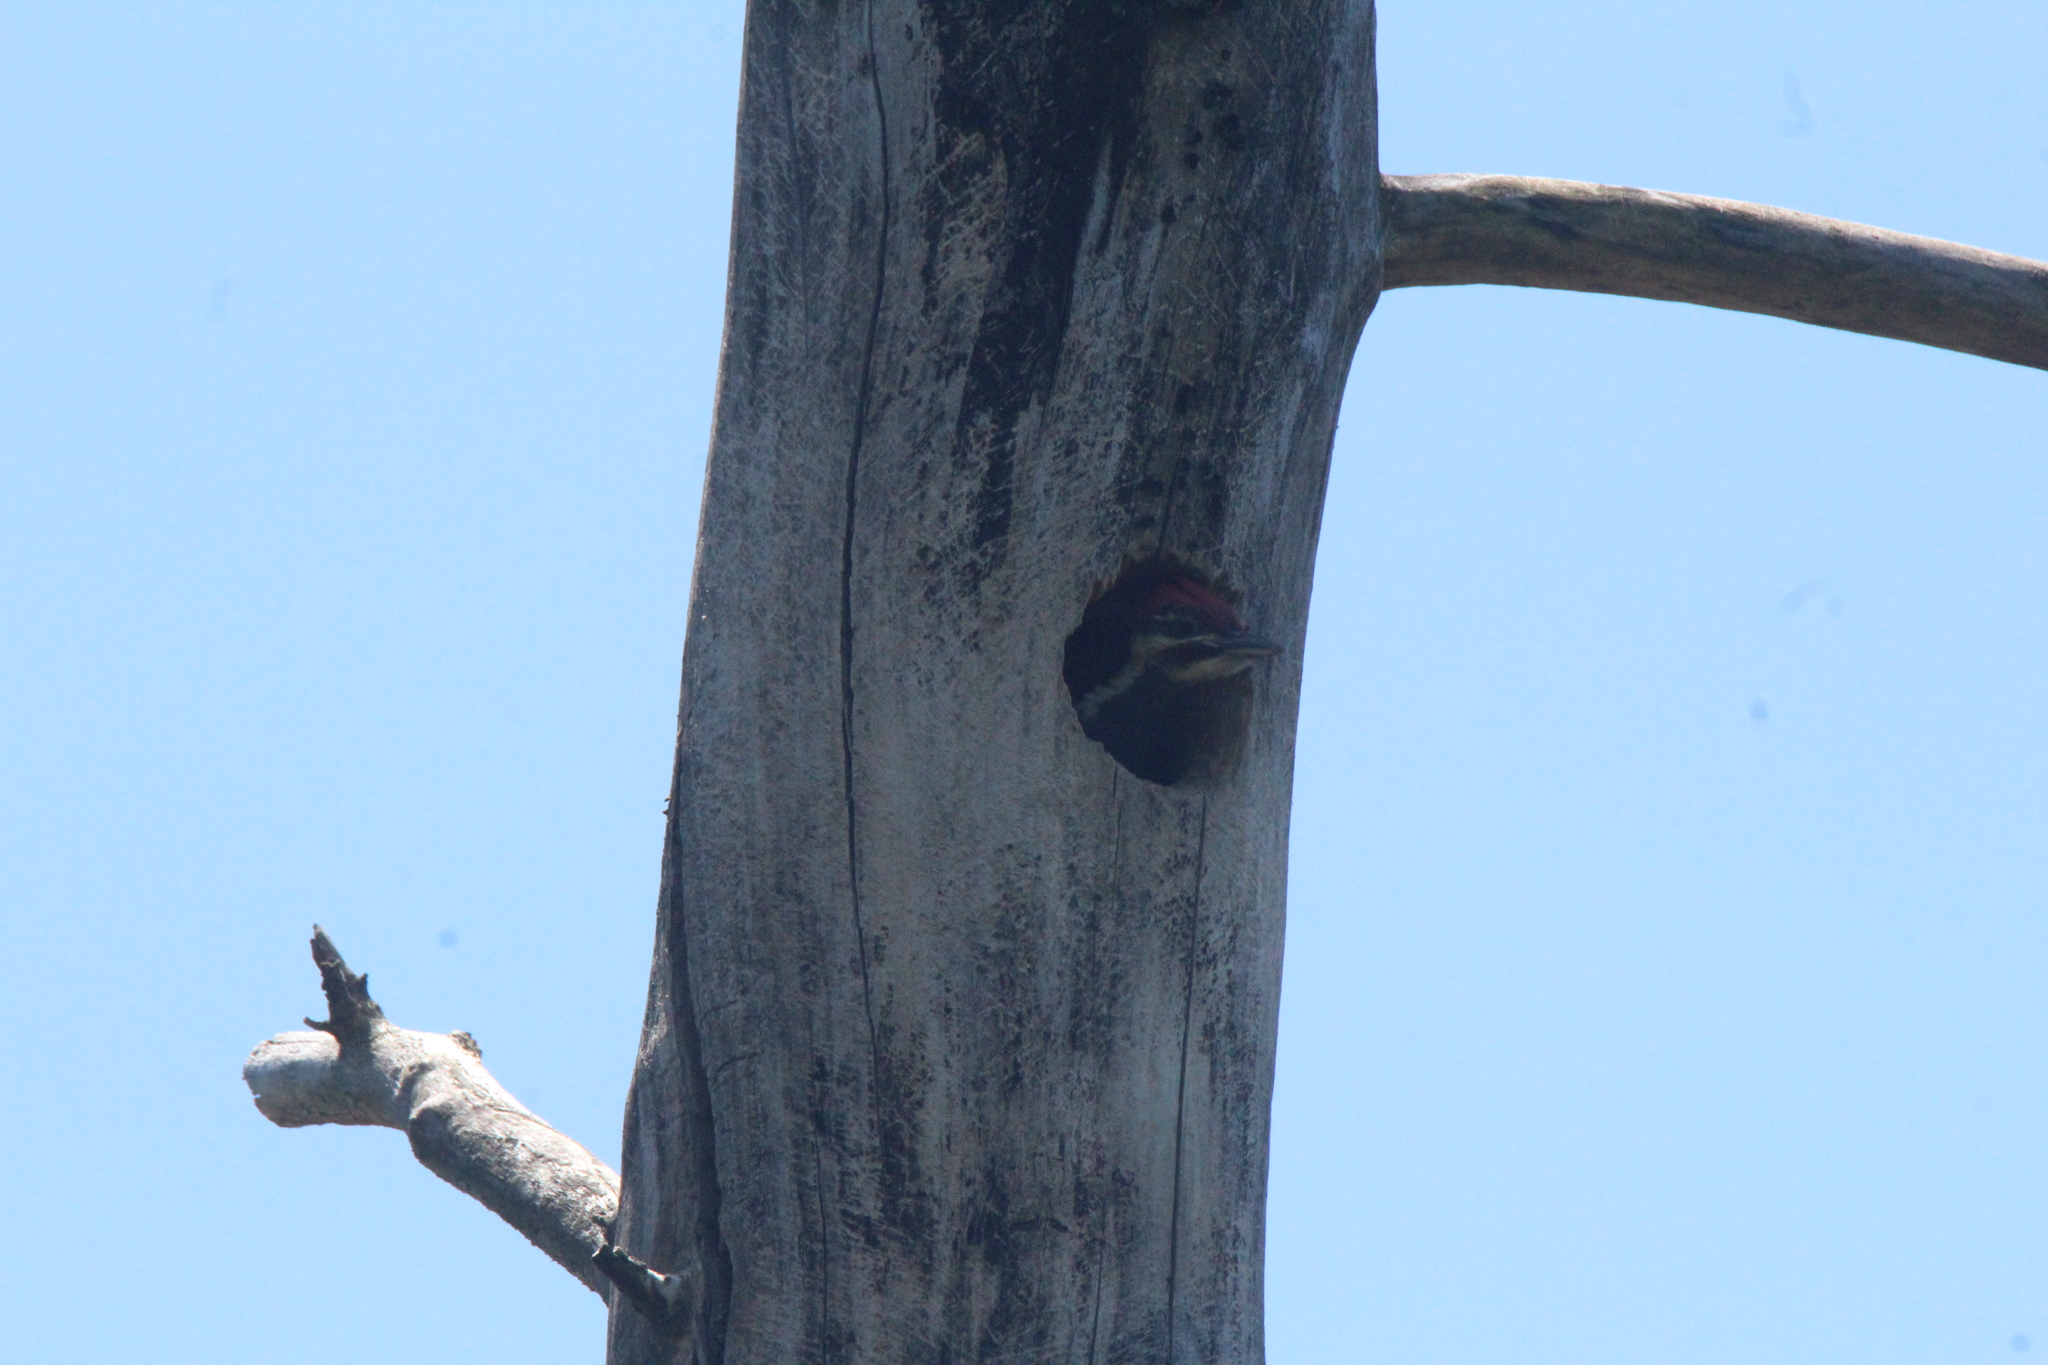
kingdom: Animalia
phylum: Chordata
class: Aves
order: Piciformes
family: Picidae
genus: Dryocopus
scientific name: Dryocopus pileatus
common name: Pileated woodpecker
